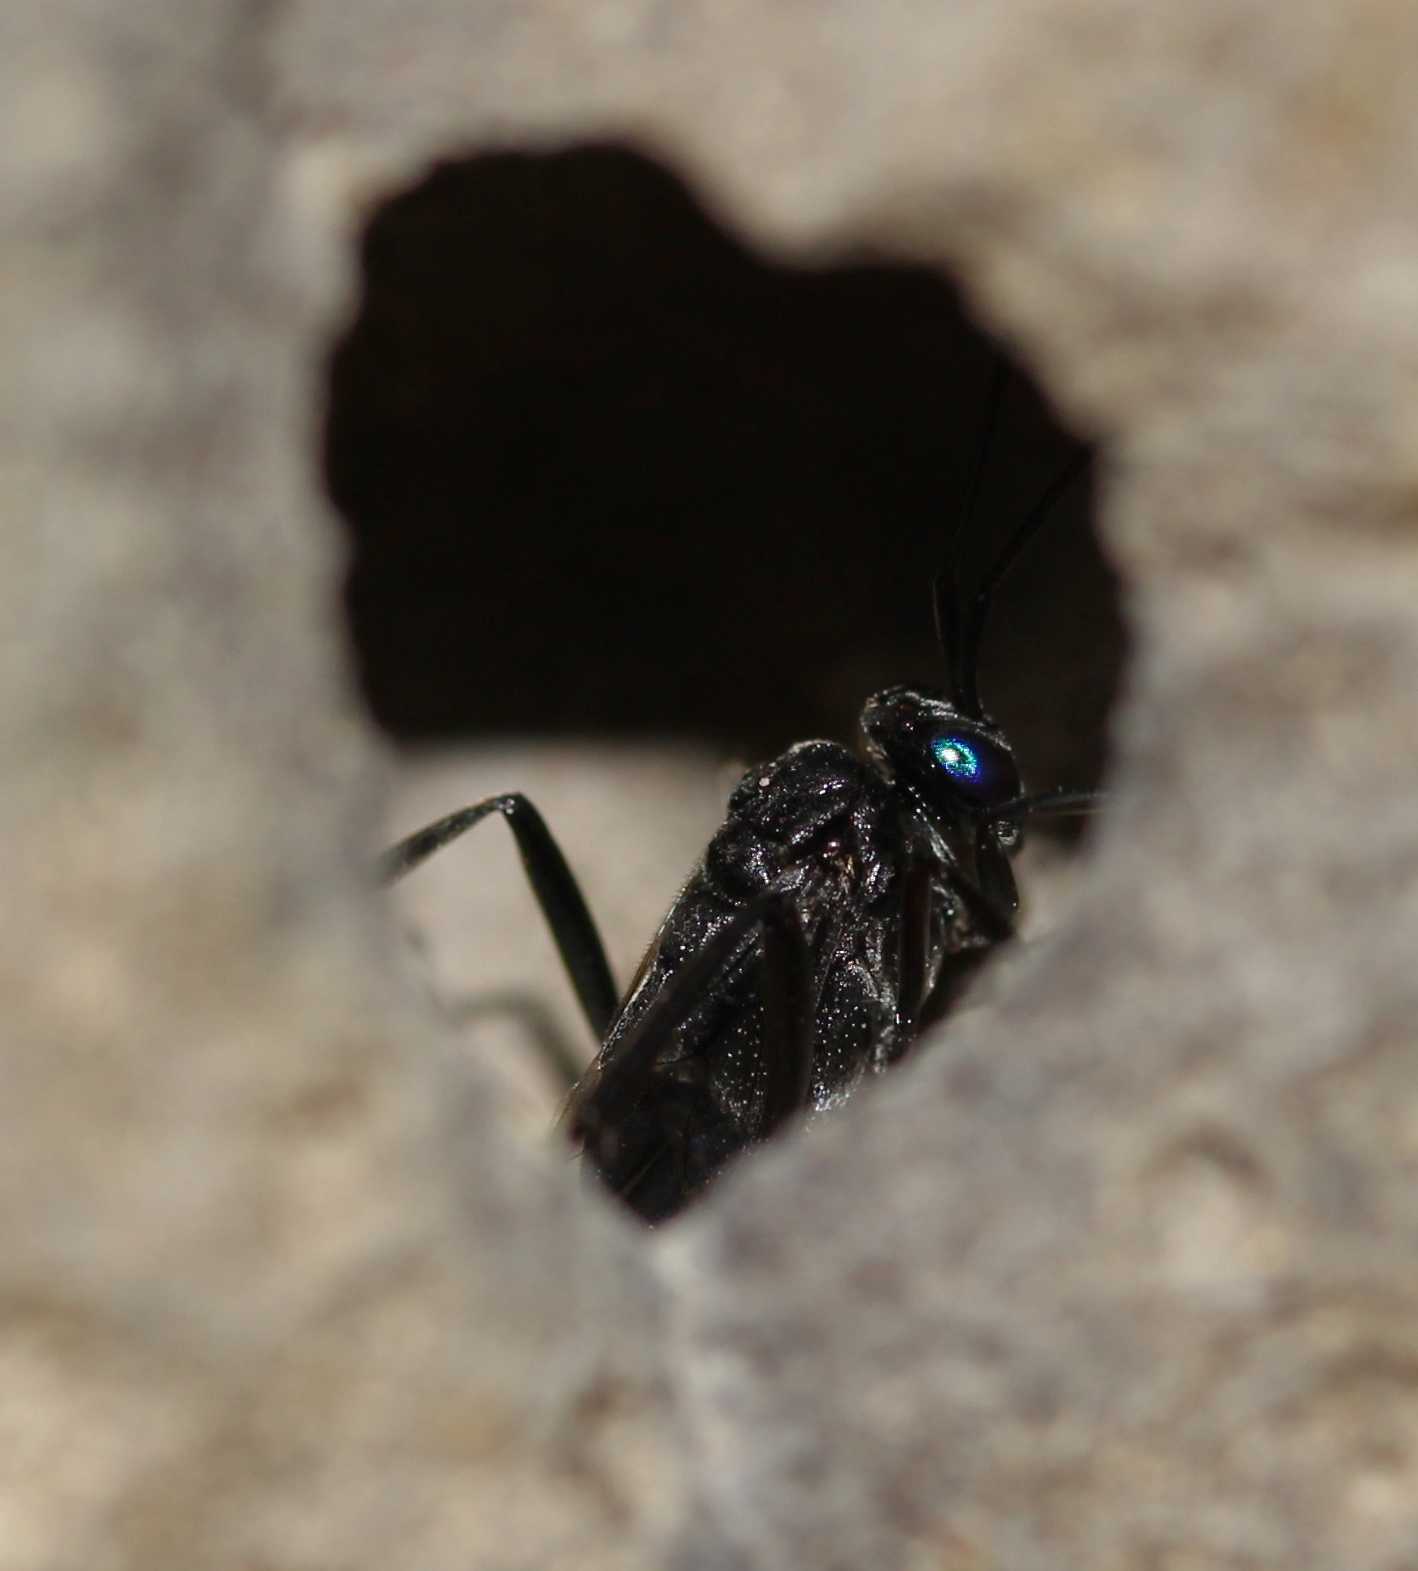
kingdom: Animalia
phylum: Arthropoda
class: Insecta
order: Hymenoptera
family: Evaniidae
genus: Evania
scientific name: Evania appendigaster
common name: Ensign wasp
